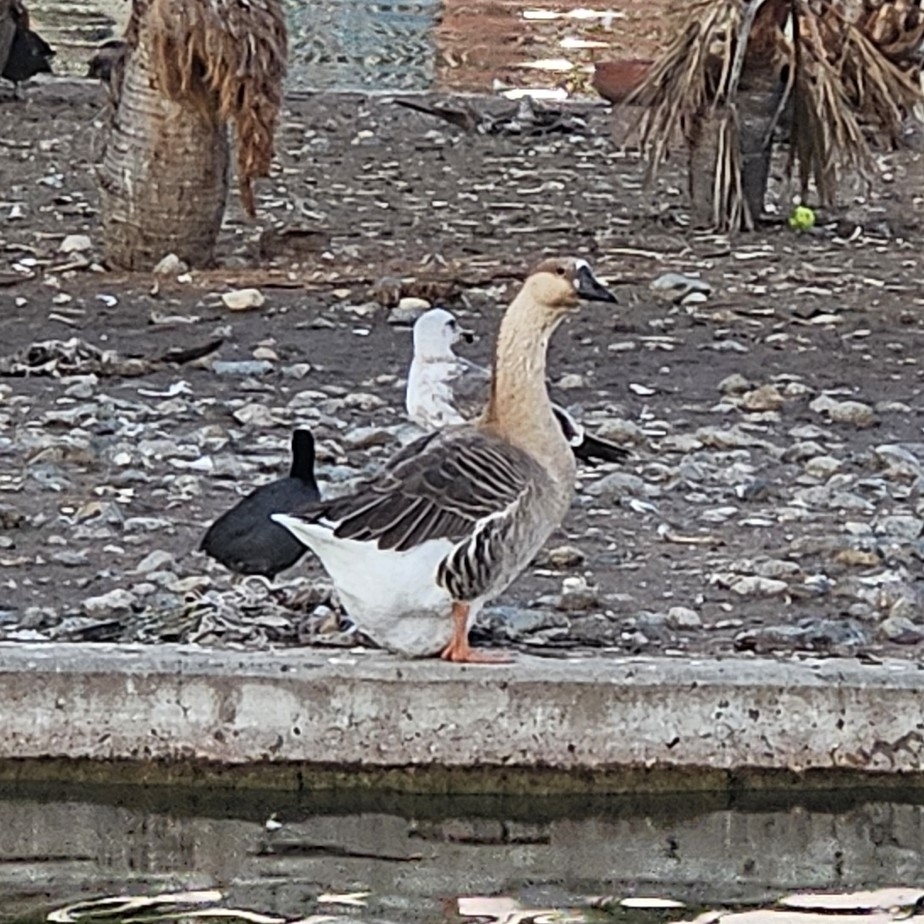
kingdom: Animalia
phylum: Chordata
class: Aves
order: Anseriformes
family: Anatidae
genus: Anser
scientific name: Anser cygnoides
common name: Swan goose
